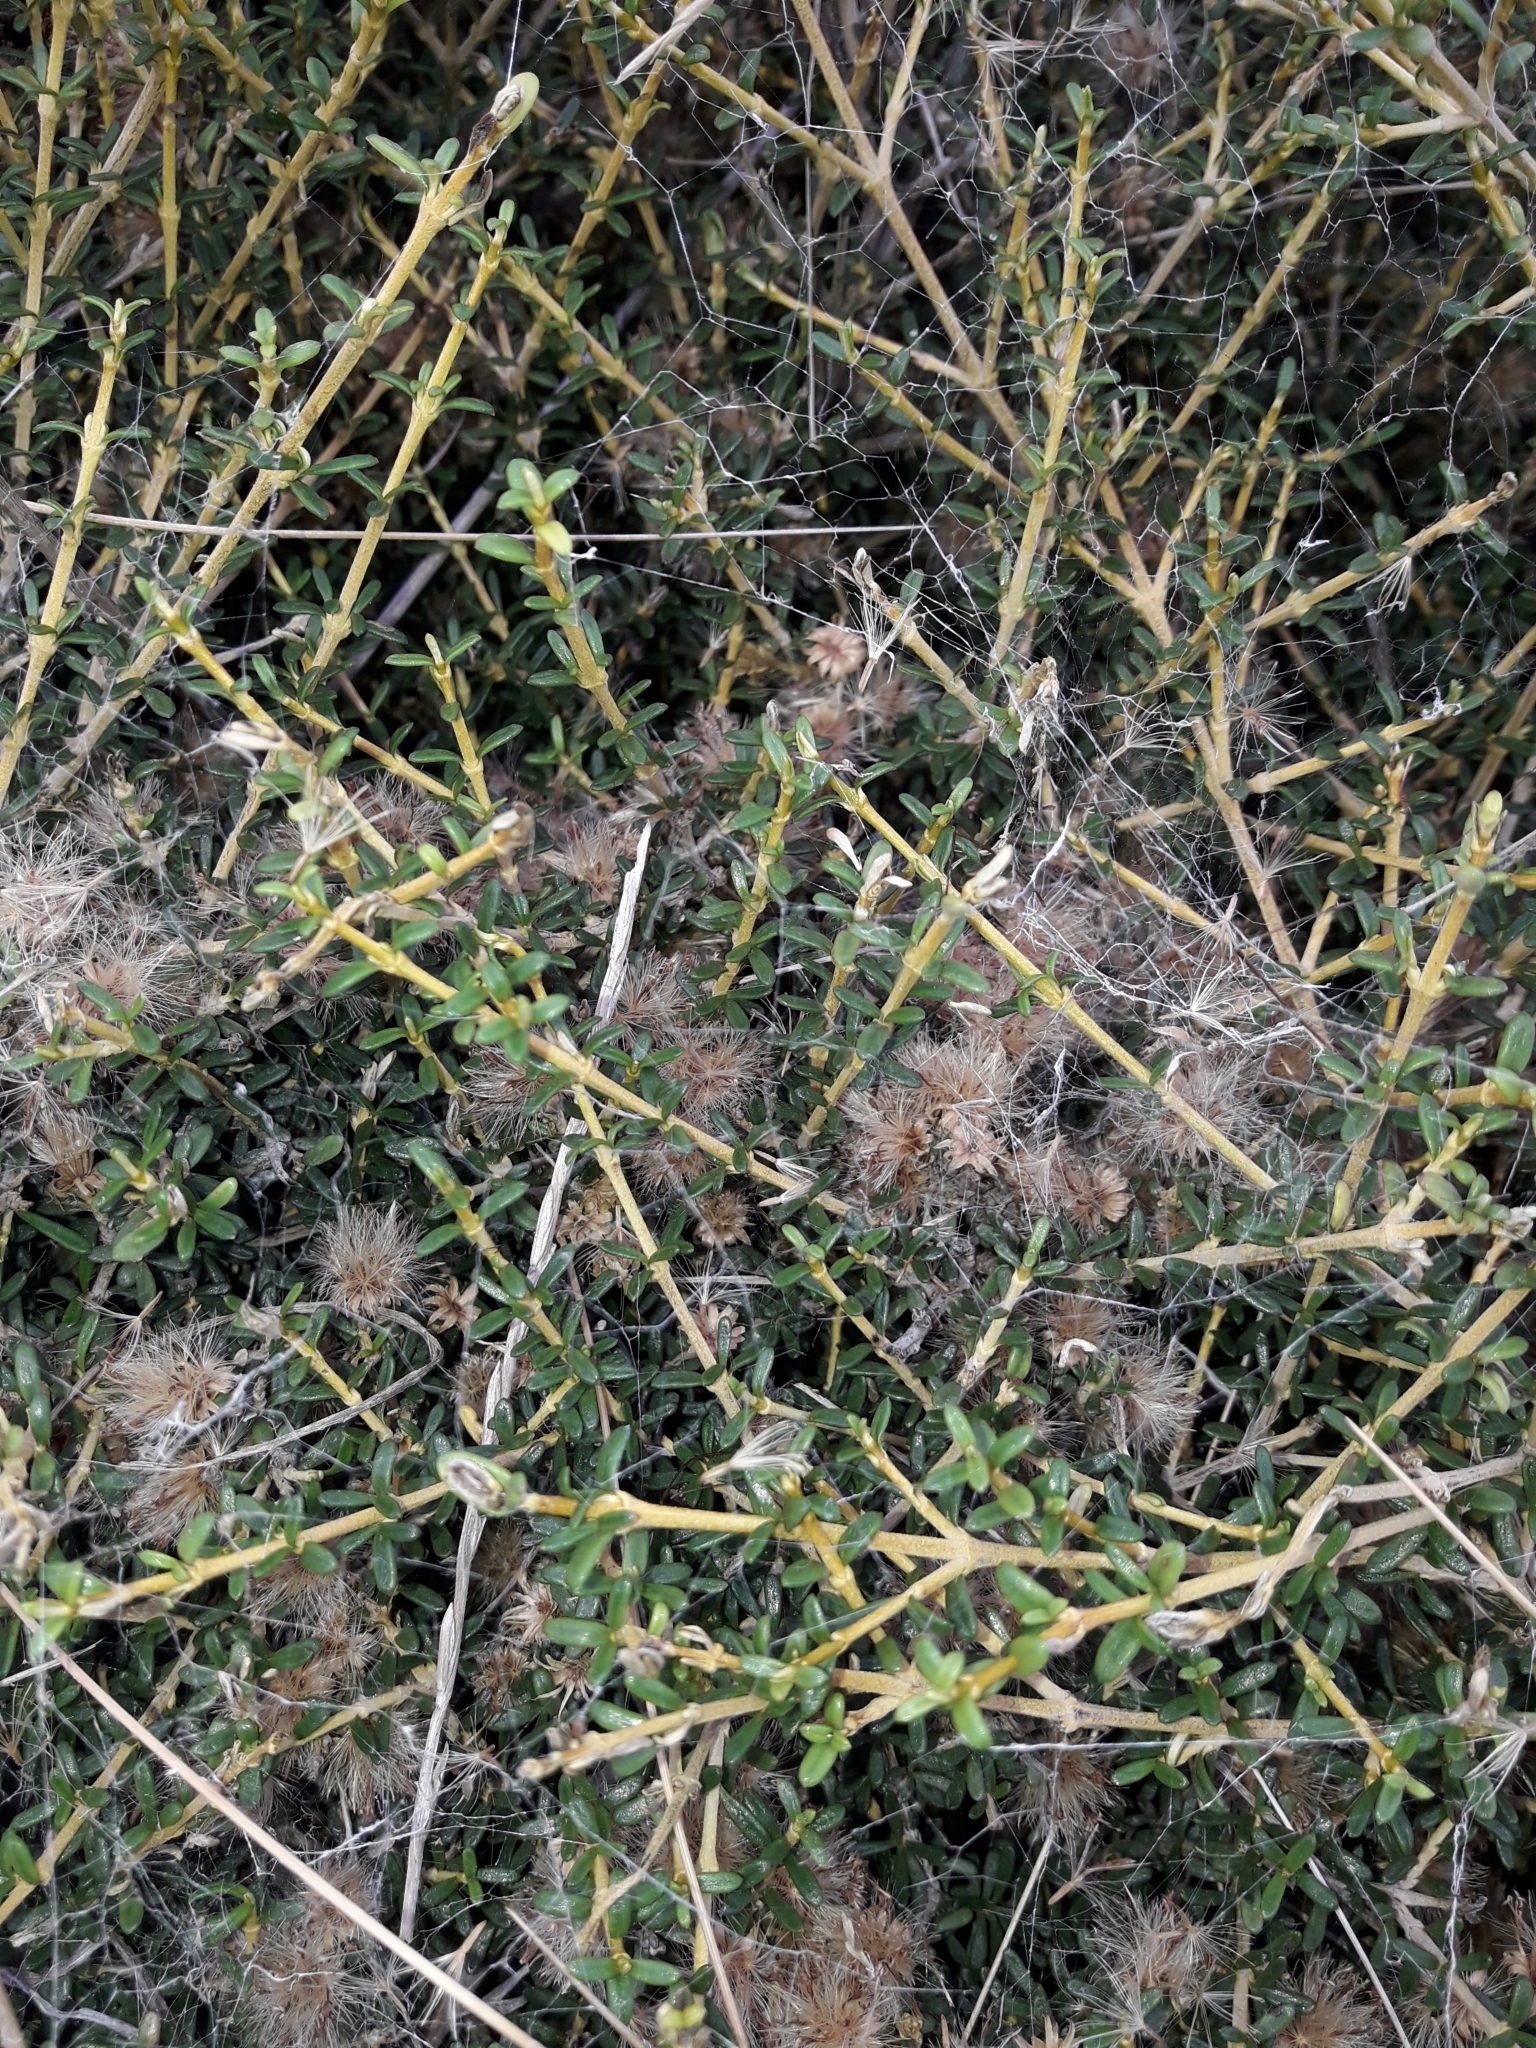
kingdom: Plantae
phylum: Tracheophyta
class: Magnoliopsida
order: Asterales
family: Asteraceae
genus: Olearia
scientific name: Olearia solandri
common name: Coastal daisybush
